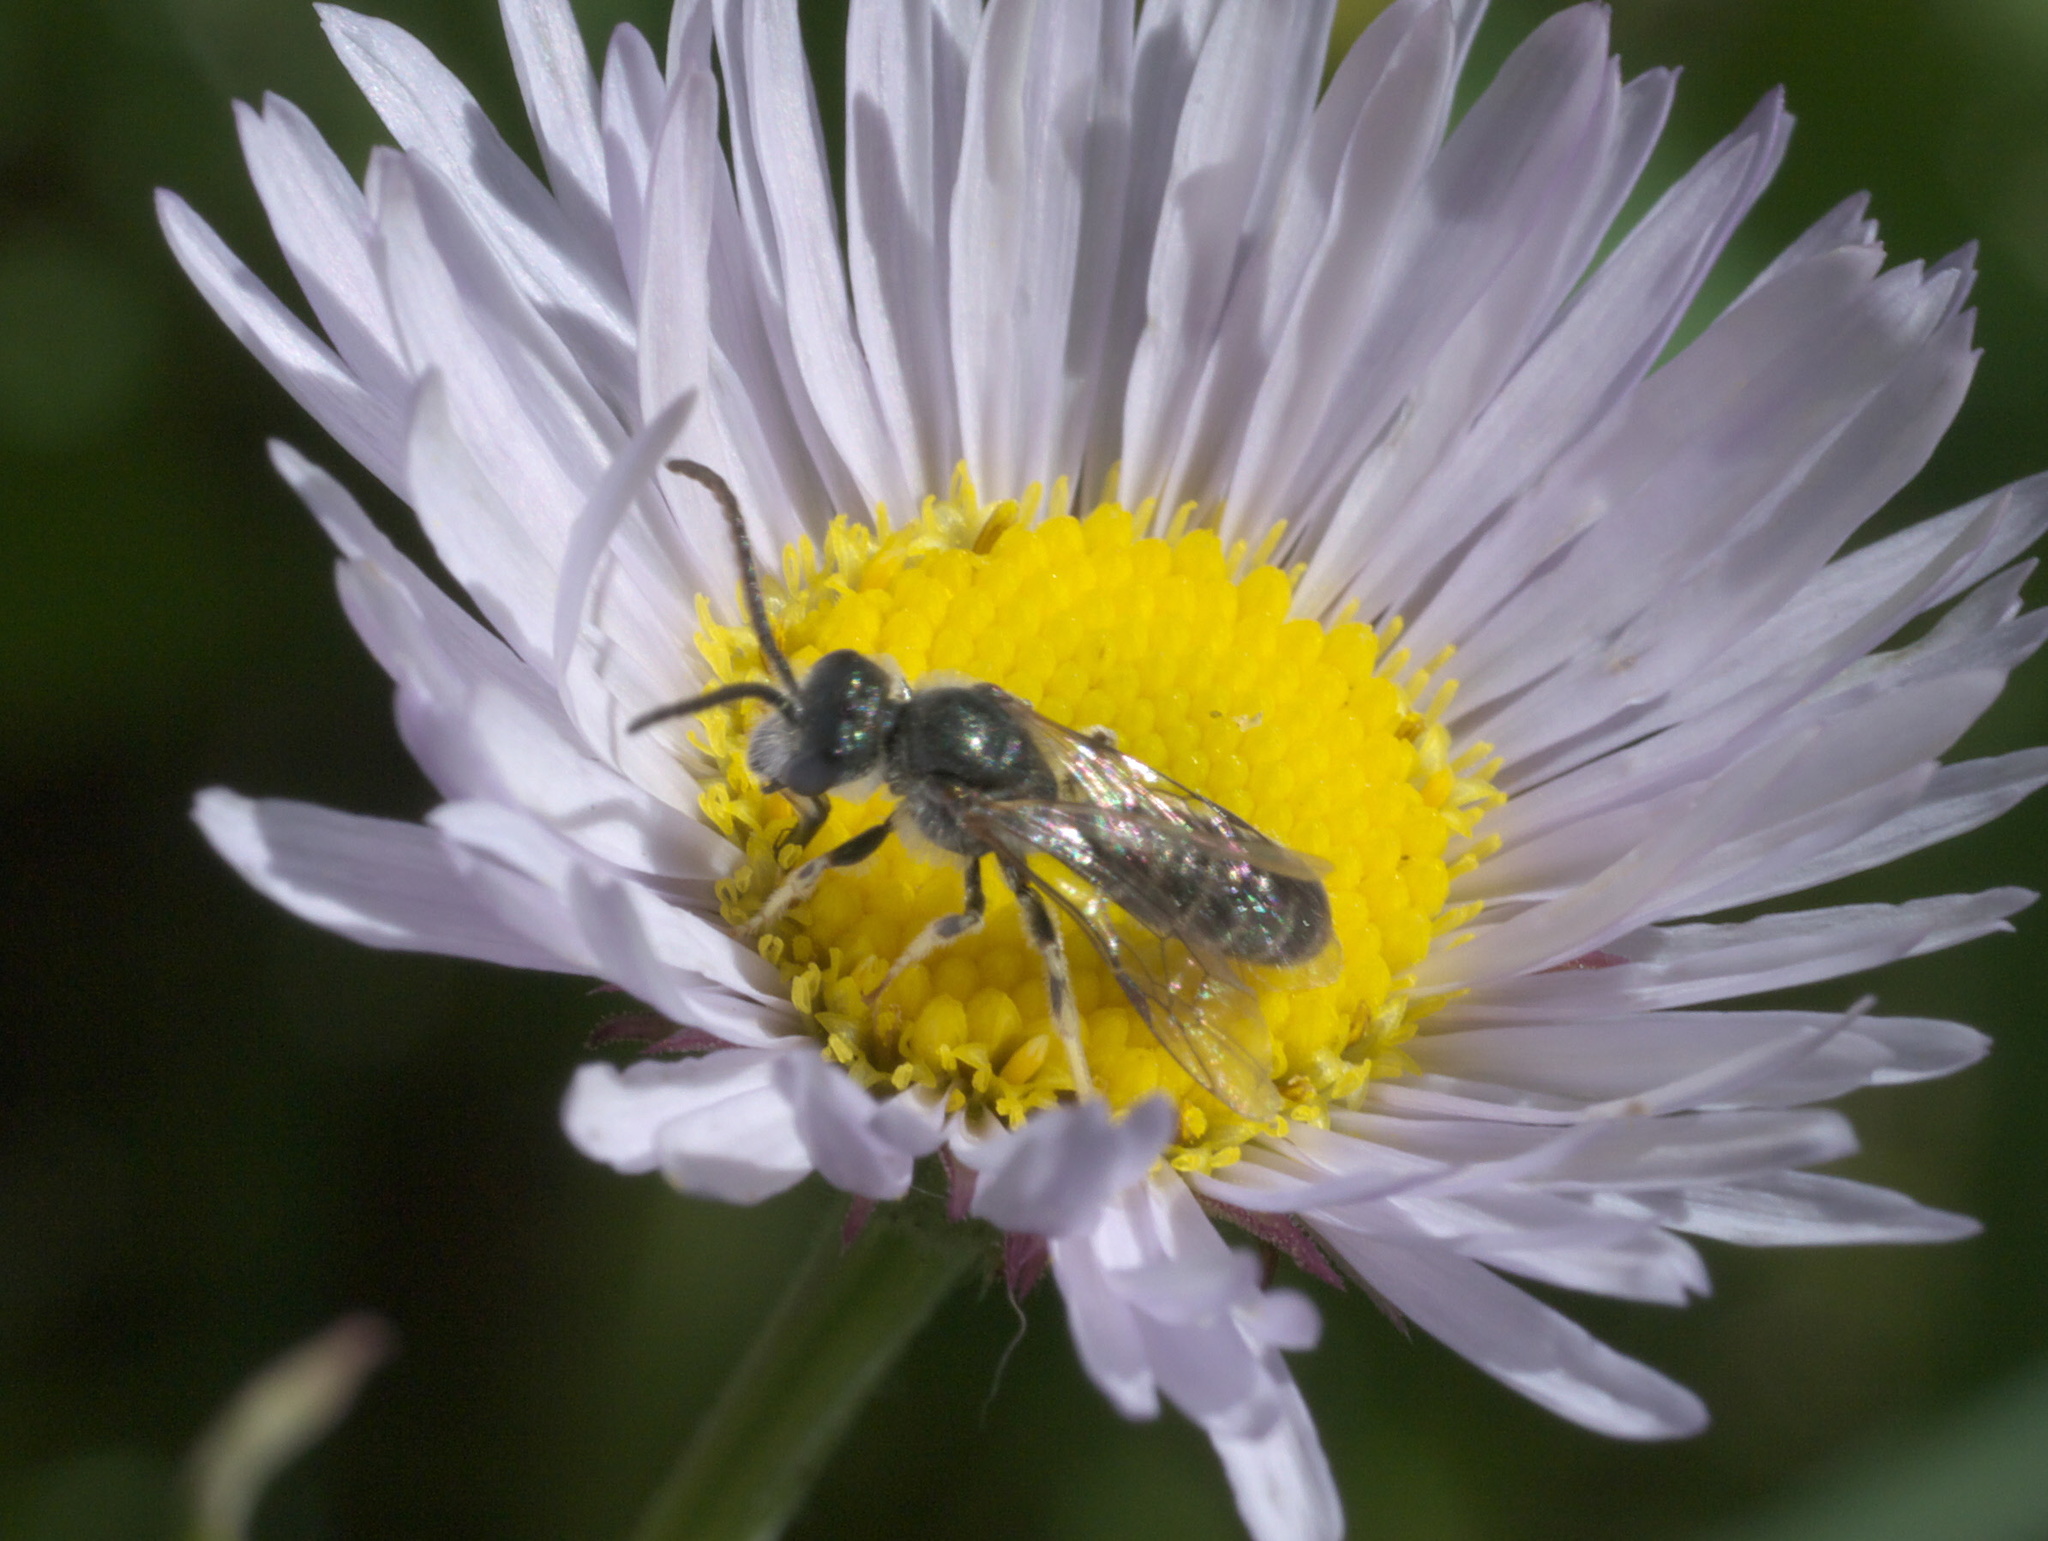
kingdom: Animalia
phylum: Arthropoda
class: Insecta
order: Hymenoptera
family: Halictidae
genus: Halictus
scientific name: Halictus virgatellus
